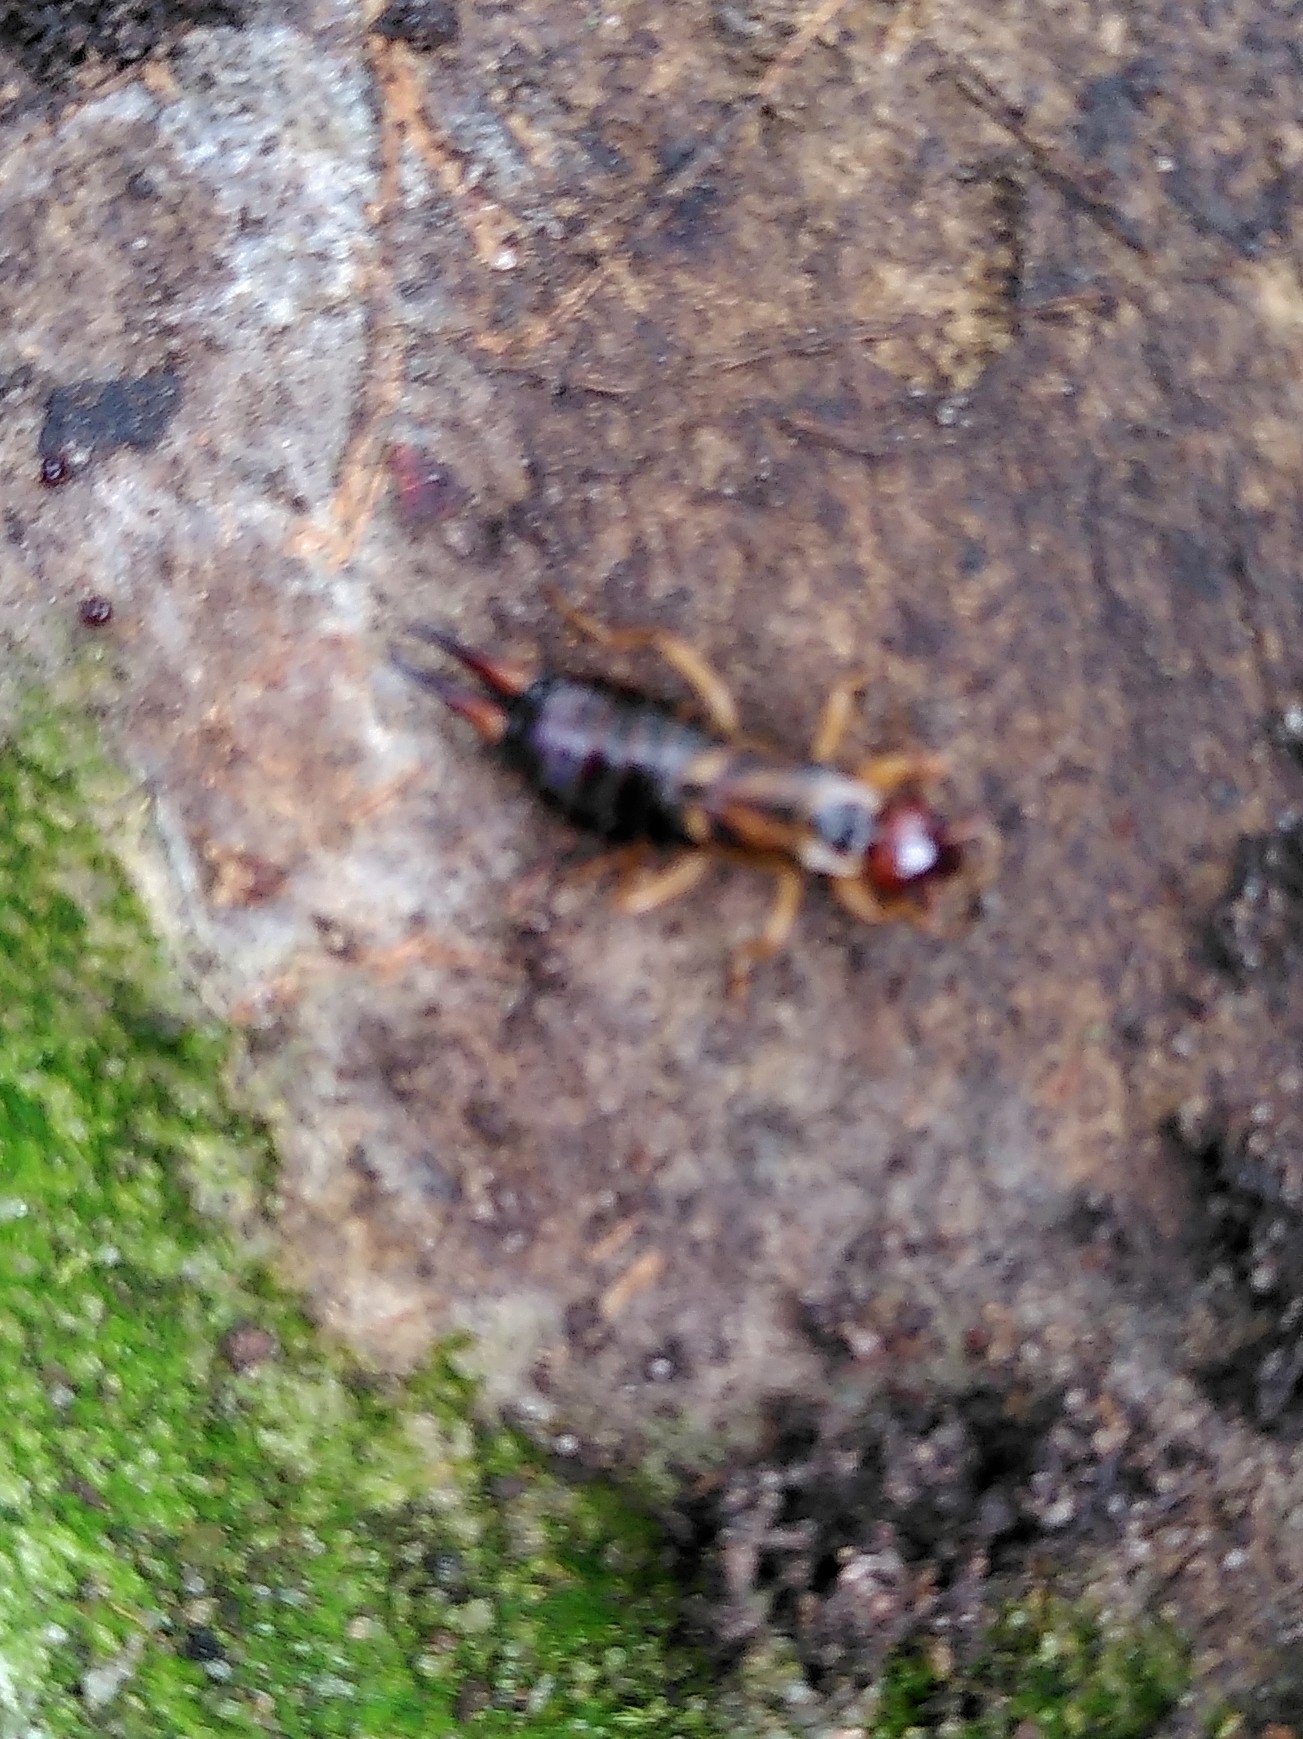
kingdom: Animalia
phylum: Arthropoda
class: Insecta
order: Dermaptera
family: Forficulidae
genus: Forficula
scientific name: Forficula
